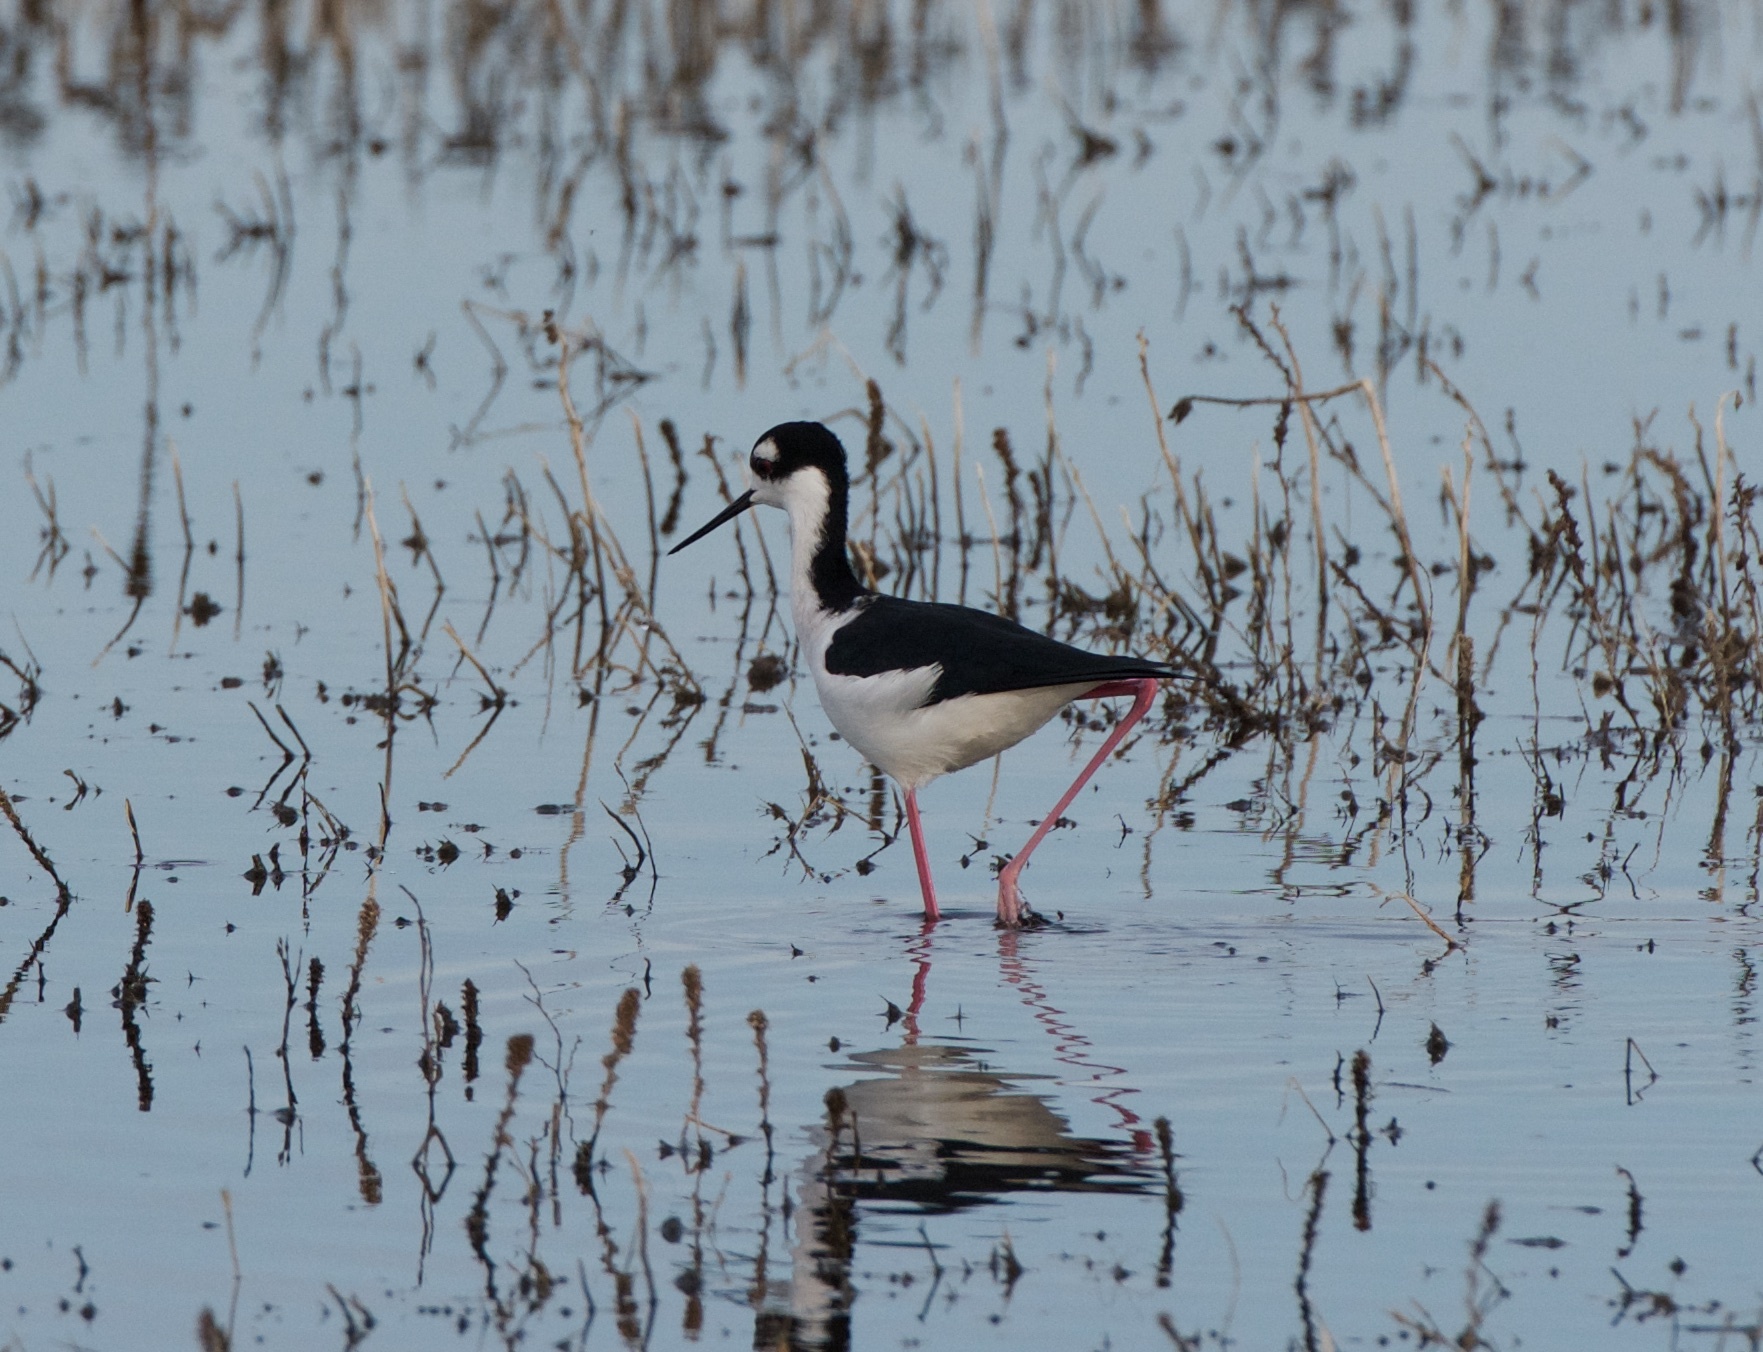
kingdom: Animalia
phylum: Chordata
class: Aves
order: Charadriiformes
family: Recurvirostridae
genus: Himantopus
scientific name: Himantopus mexicanus
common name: Black-necked stilt
